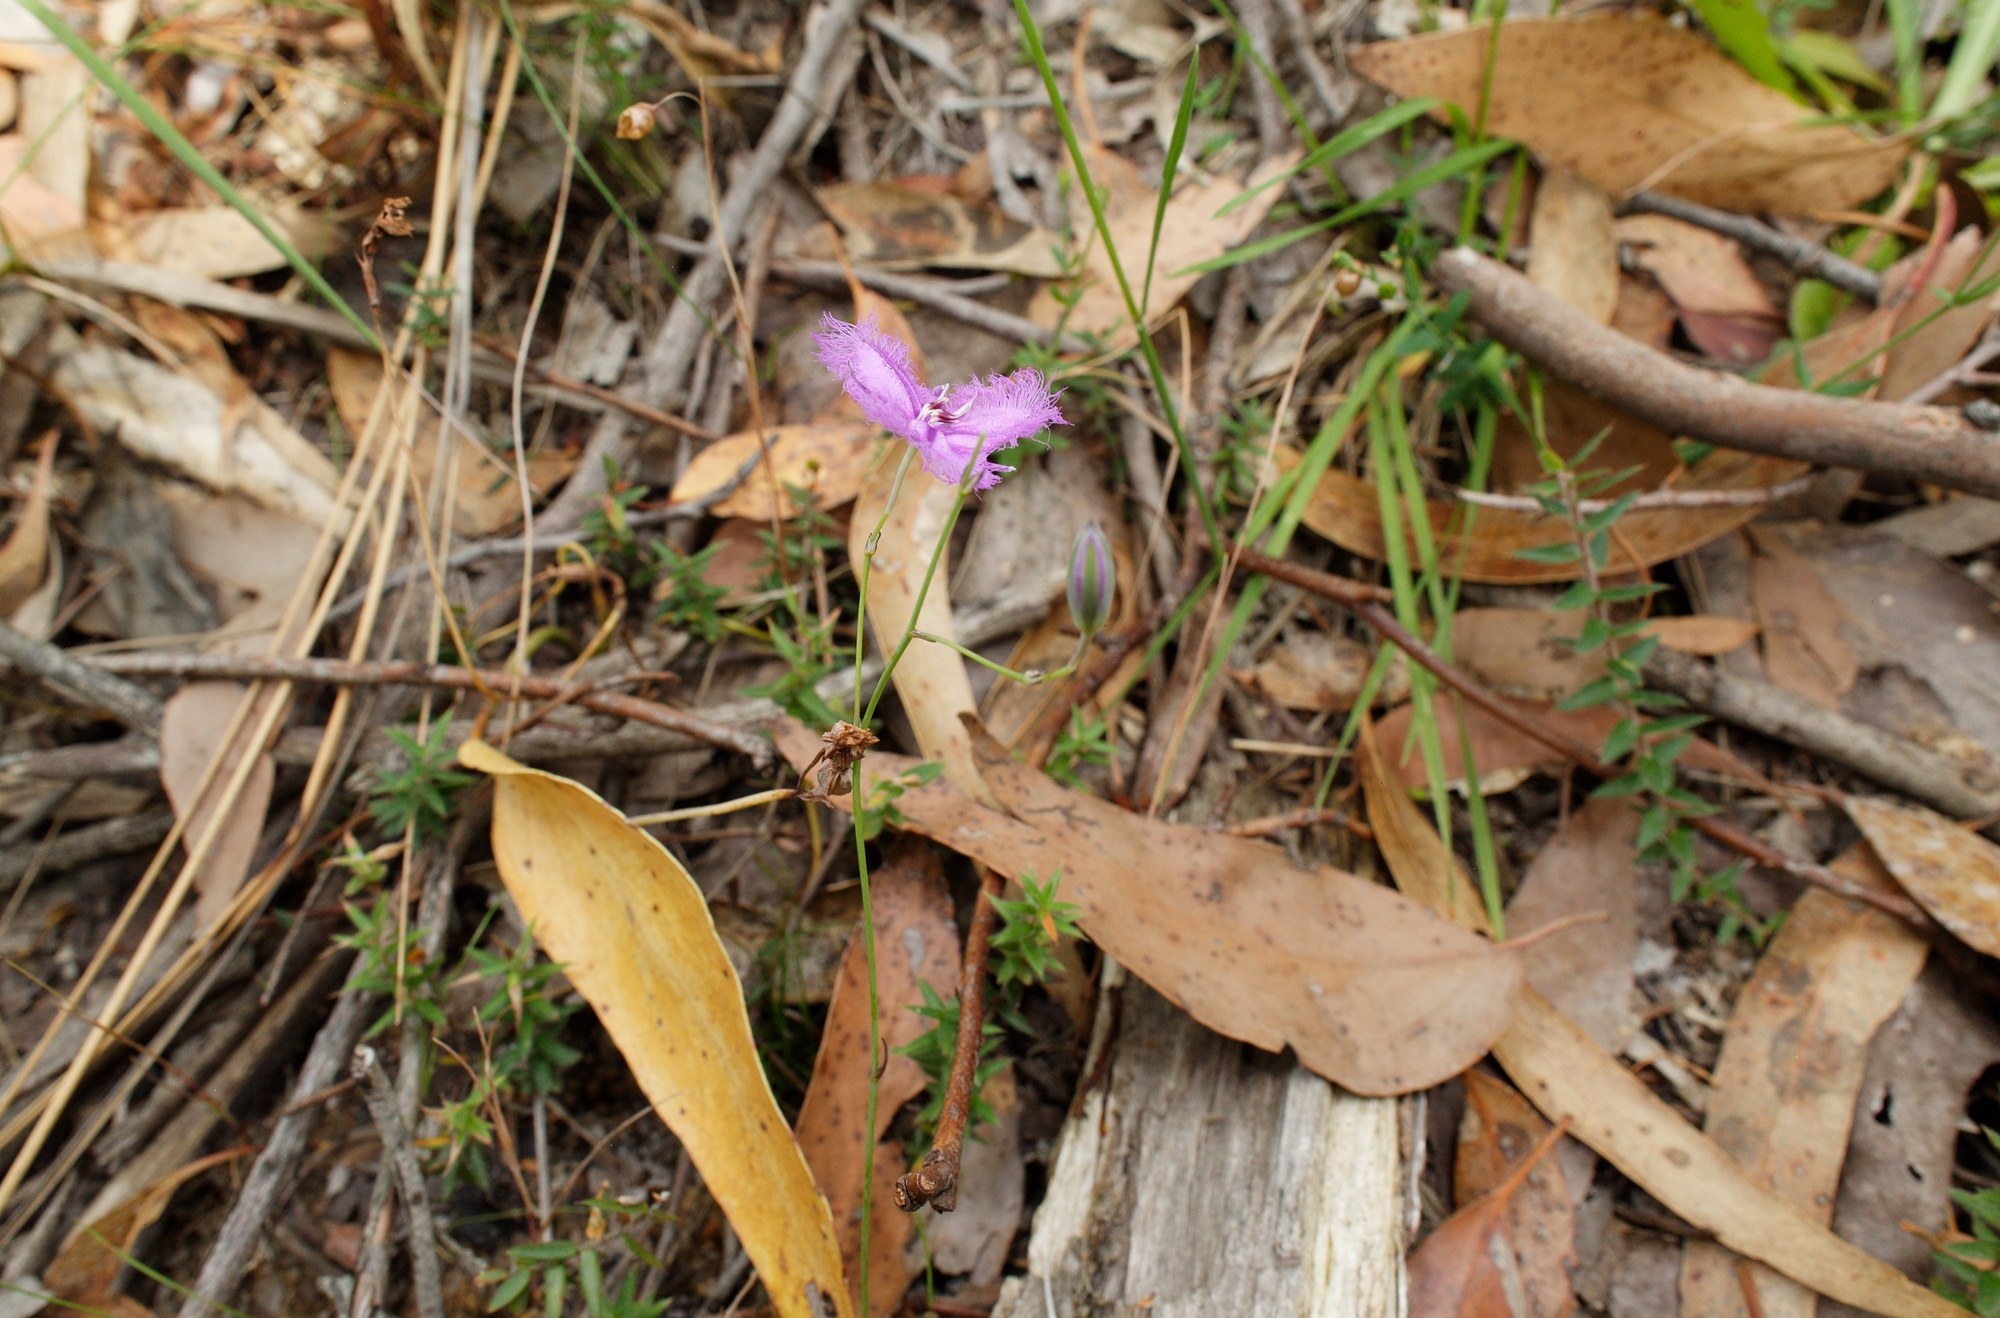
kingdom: Plantae
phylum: Tracheophyta
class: Liliopsida
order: Asparagales
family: Asparagaceae
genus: Thysanotus
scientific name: Thysanotus patersonii
